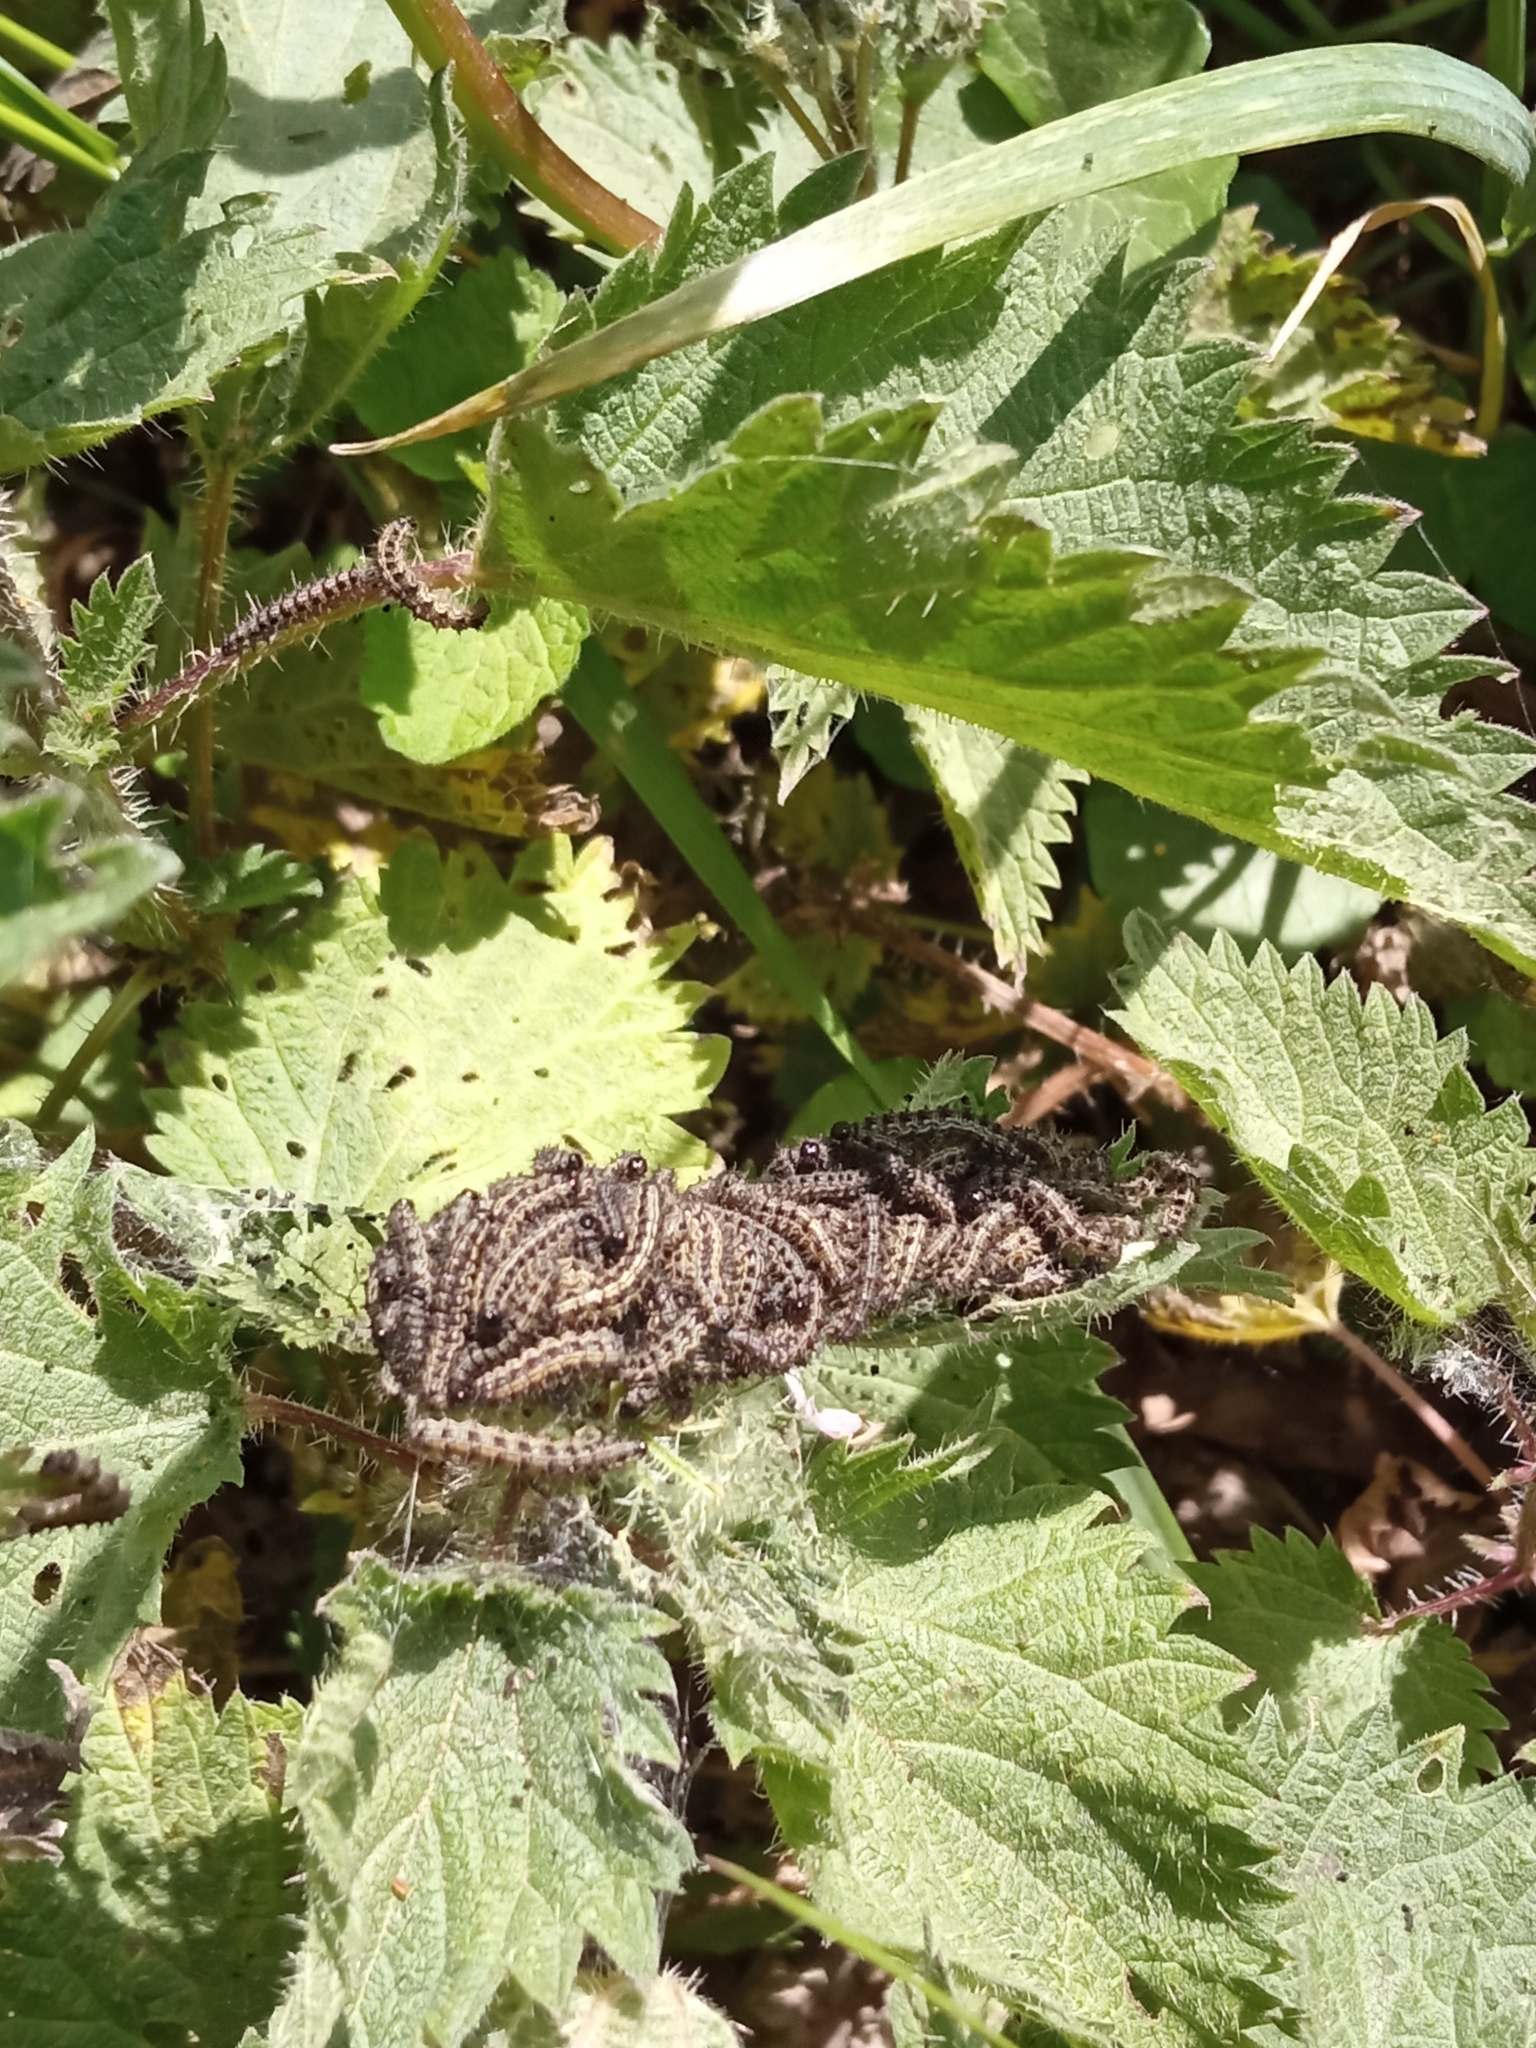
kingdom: Animalia
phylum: Arthropoda
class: Insecta
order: Lepidoptera
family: Nymphalidae
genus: Aglais
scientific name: Aglais urticae
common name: Small tortoiseshell
